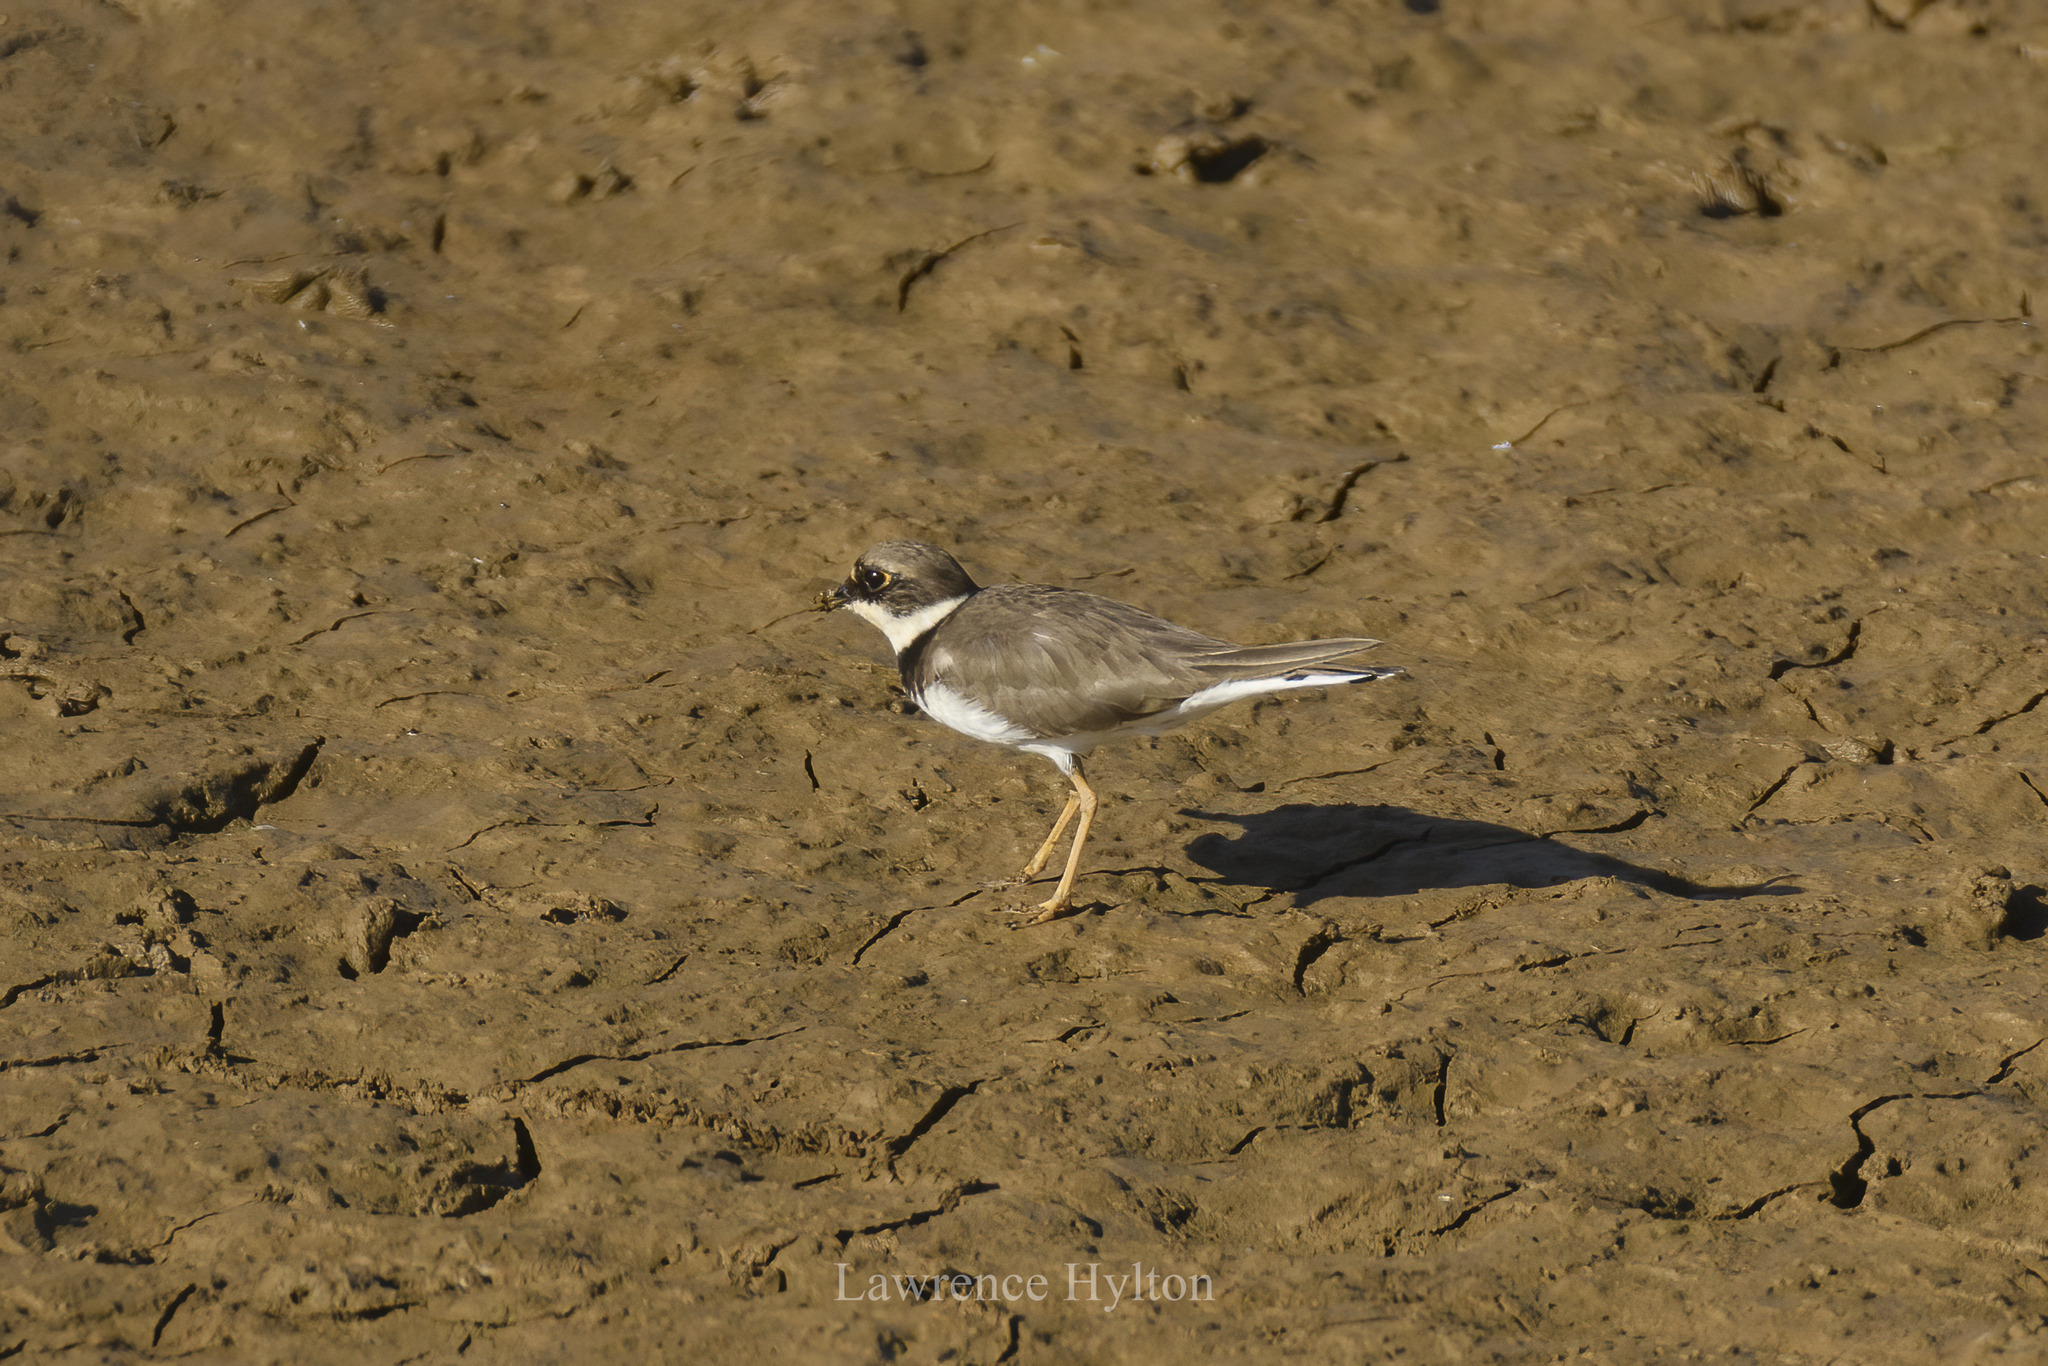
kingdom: Animalia
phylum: Chordata
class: Aves
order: Charadriiformes
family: Charadriidae
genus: Charadrius
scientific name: Charadrius dubius
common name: Little ringed plover
